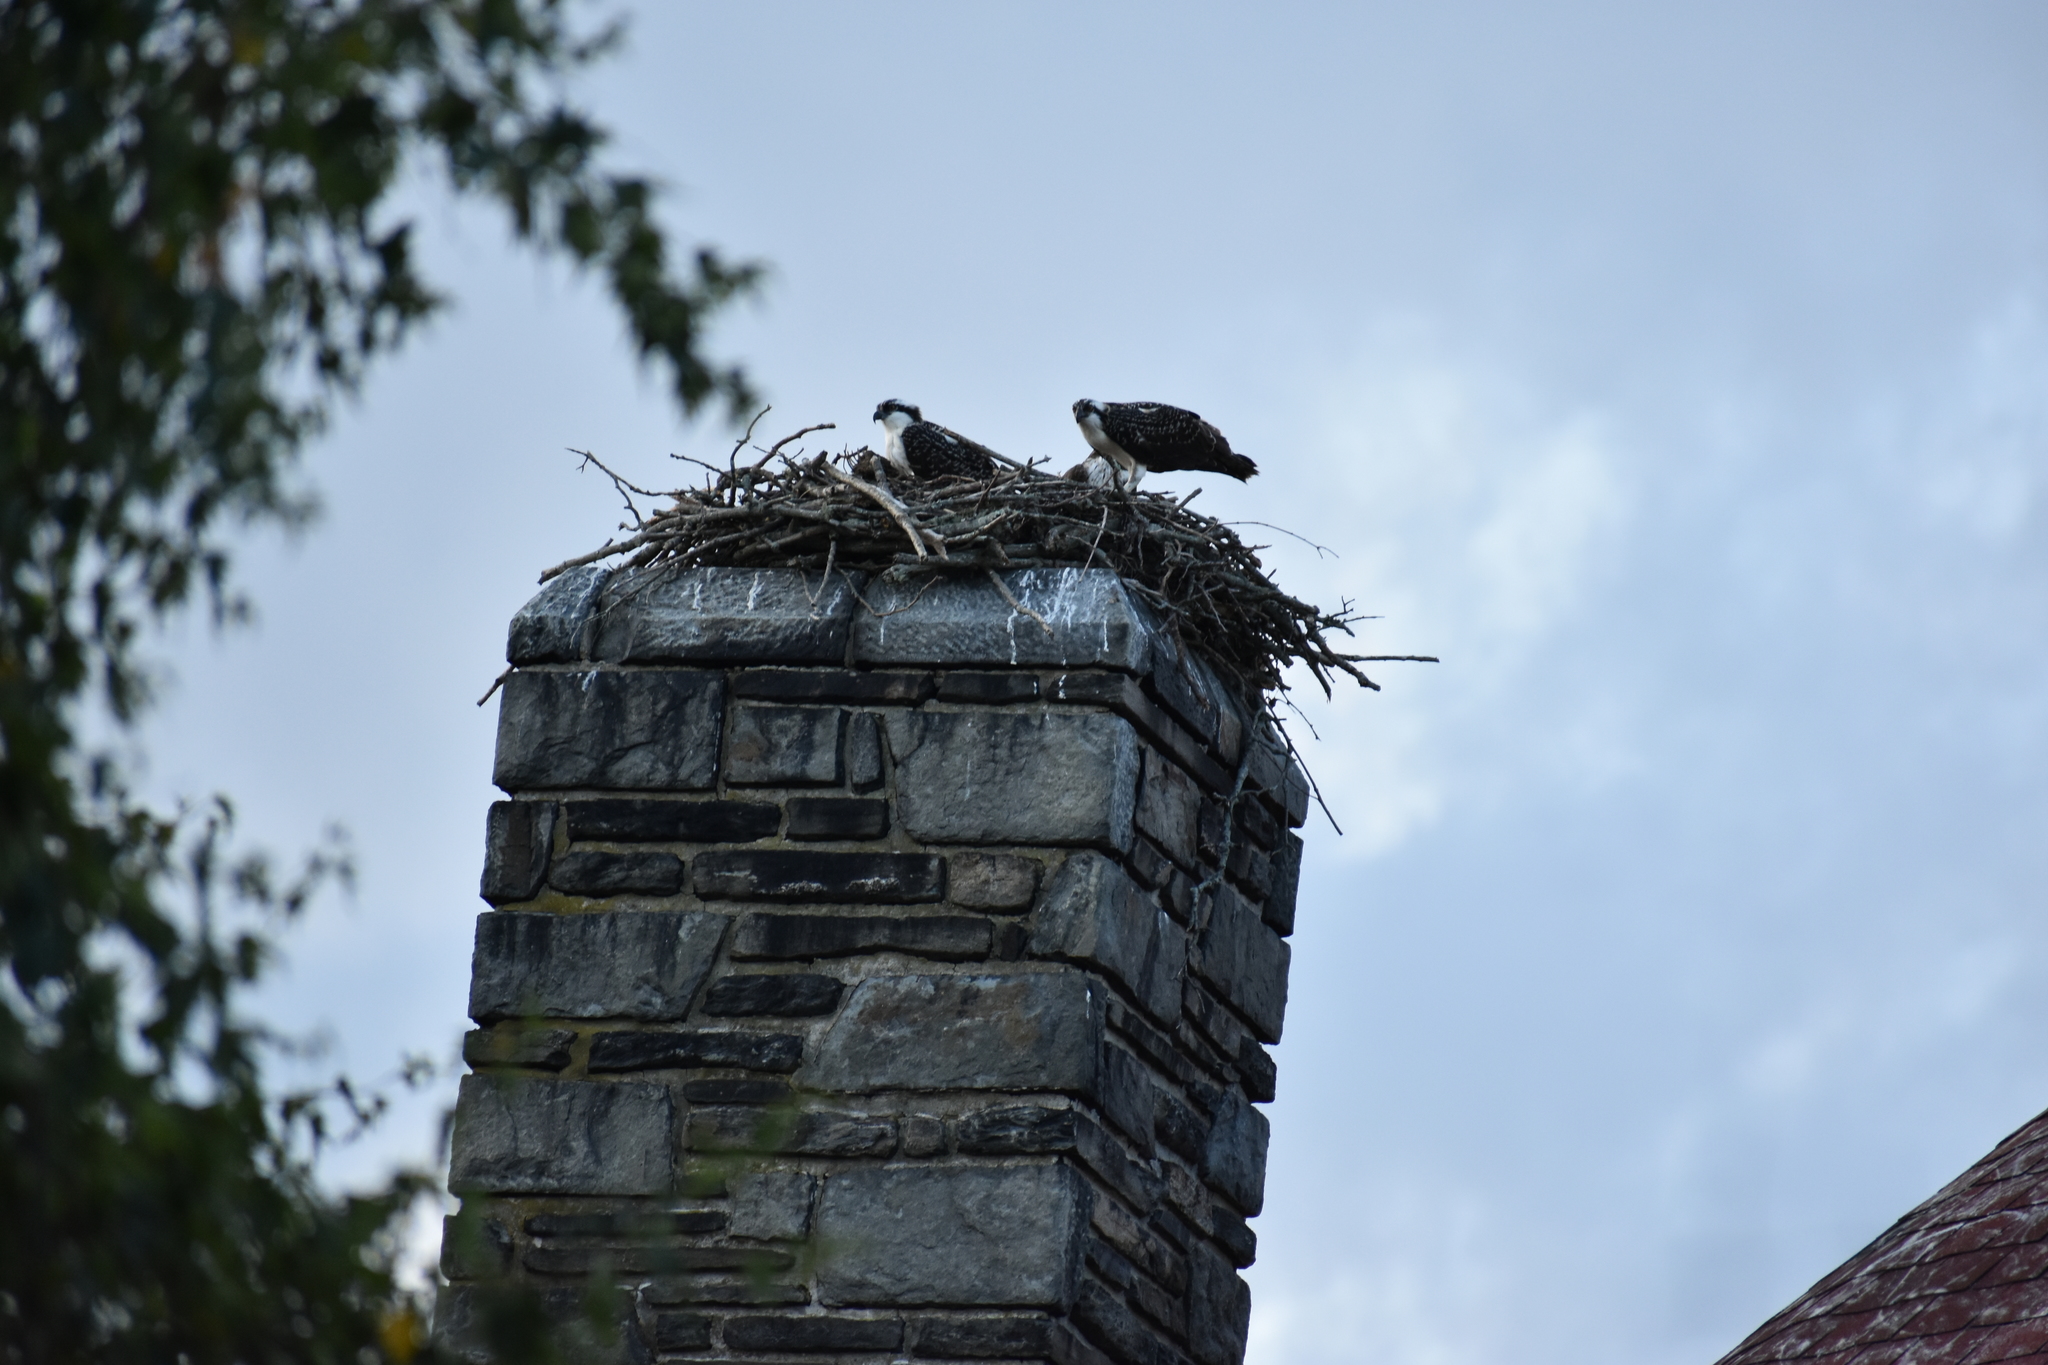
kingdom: Animalia
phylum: Chordata
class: Aves
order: Accipitriformes
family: Pandionidae
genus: Pandion
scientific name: Pandion haliaetus
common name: Osprey
